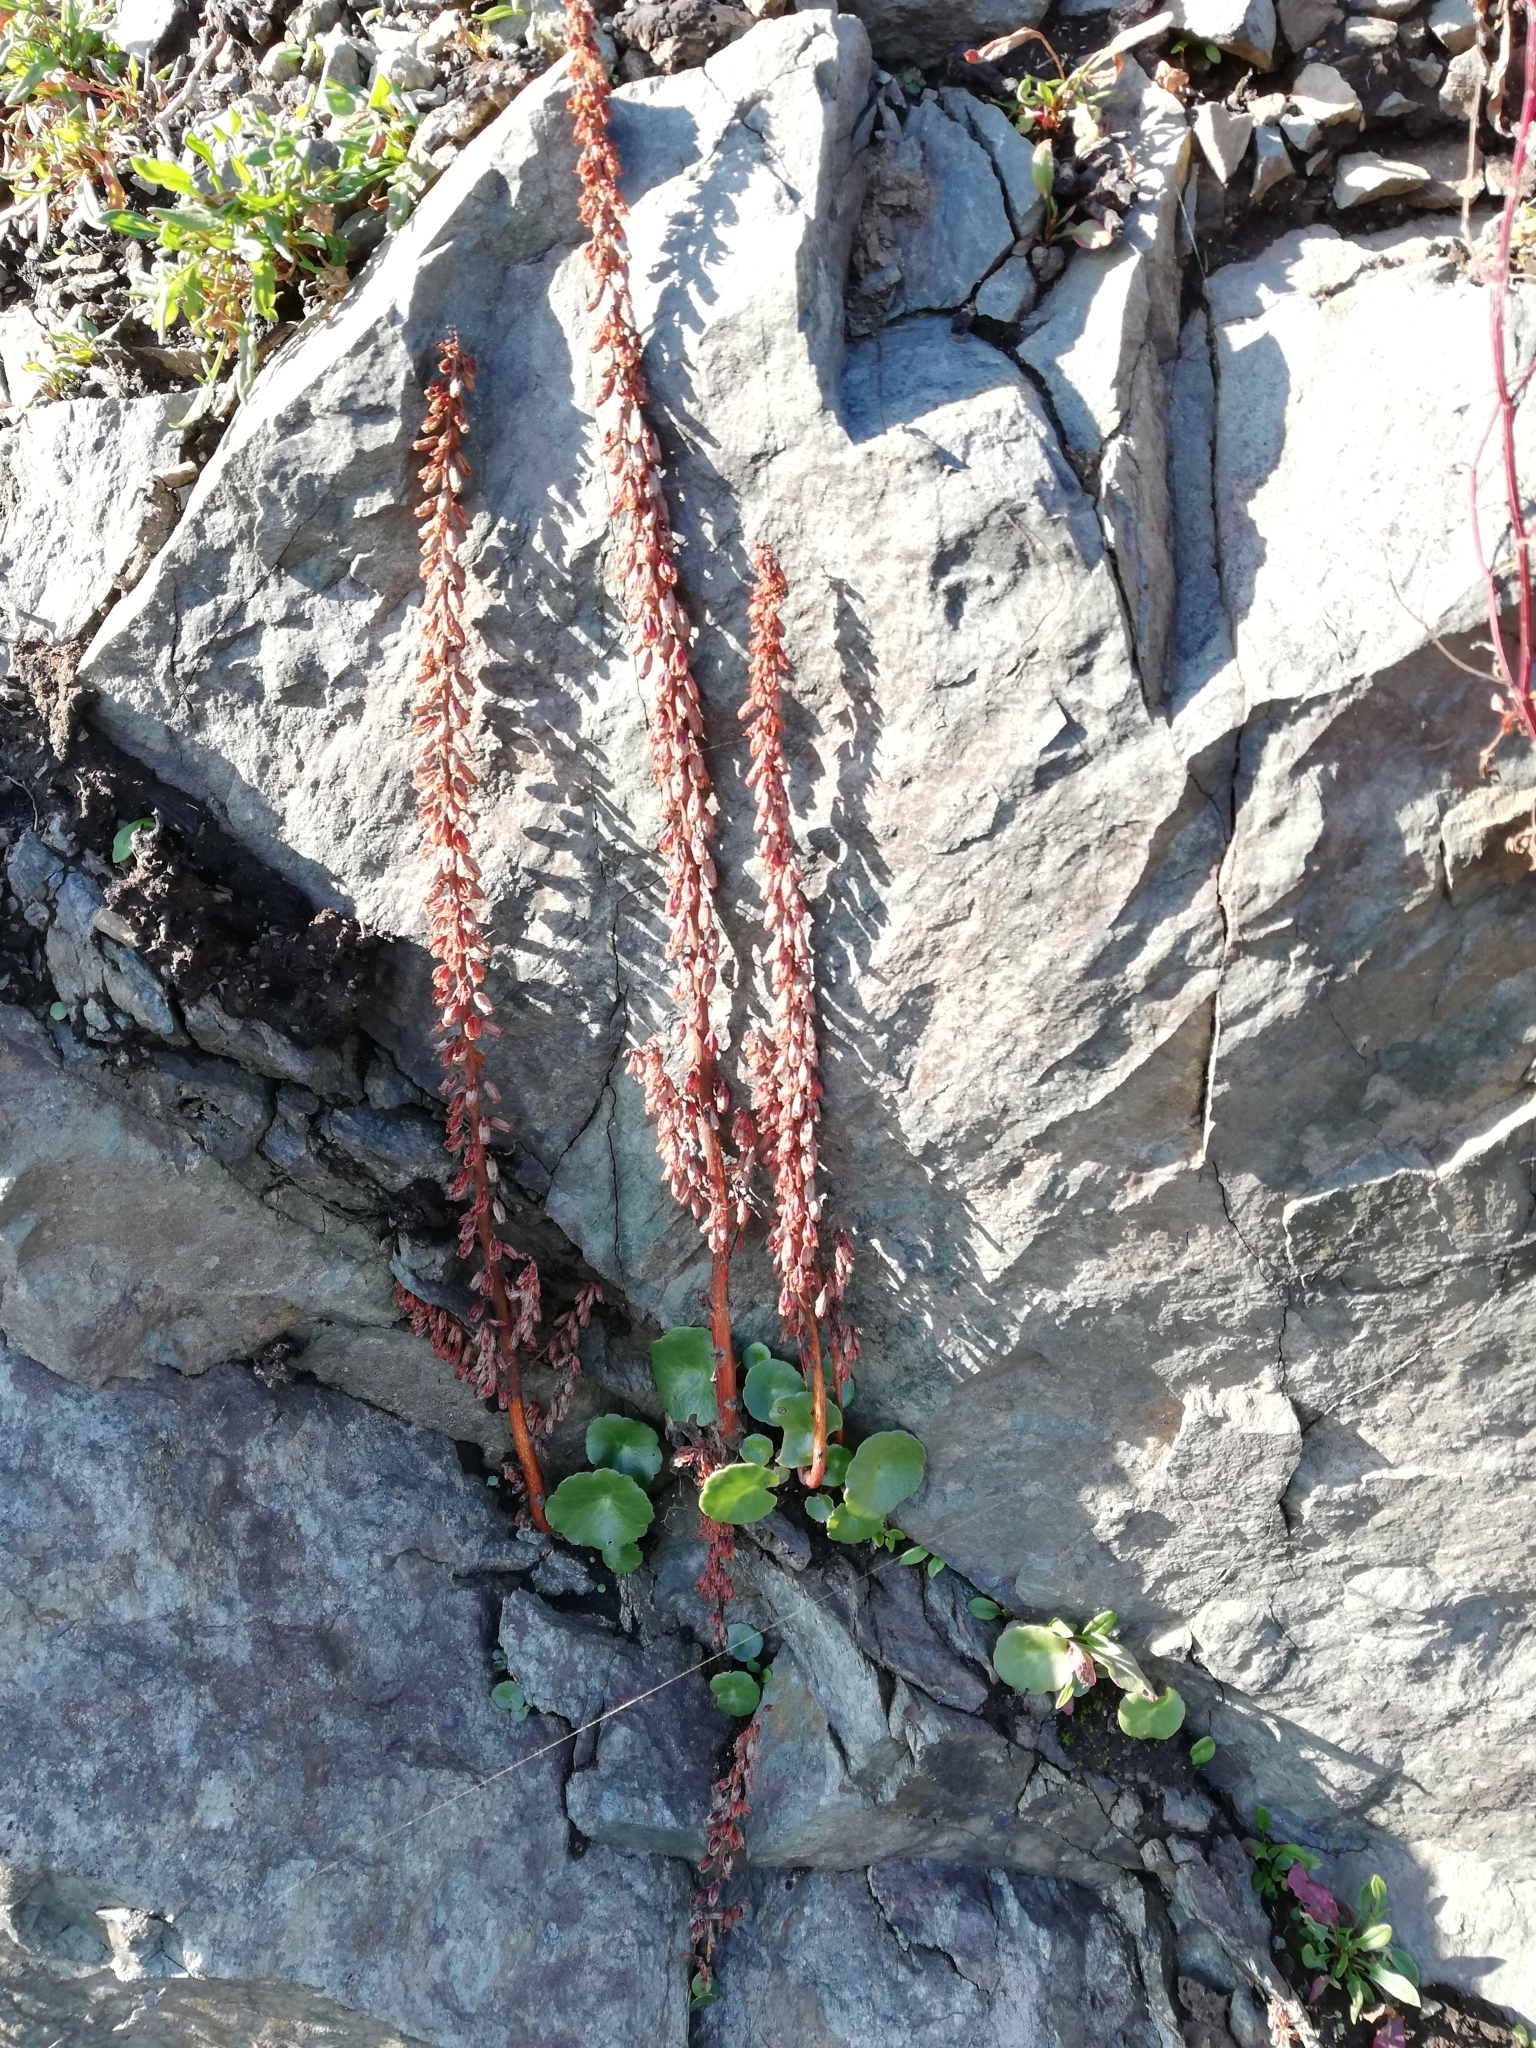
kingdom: Plantae
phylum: Tracheophyta
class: Magnoliopsida
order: Saxifragales
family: Crassulaceae
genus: Umbilicus
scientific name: Umbilicus rupestris
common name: Navelwort
